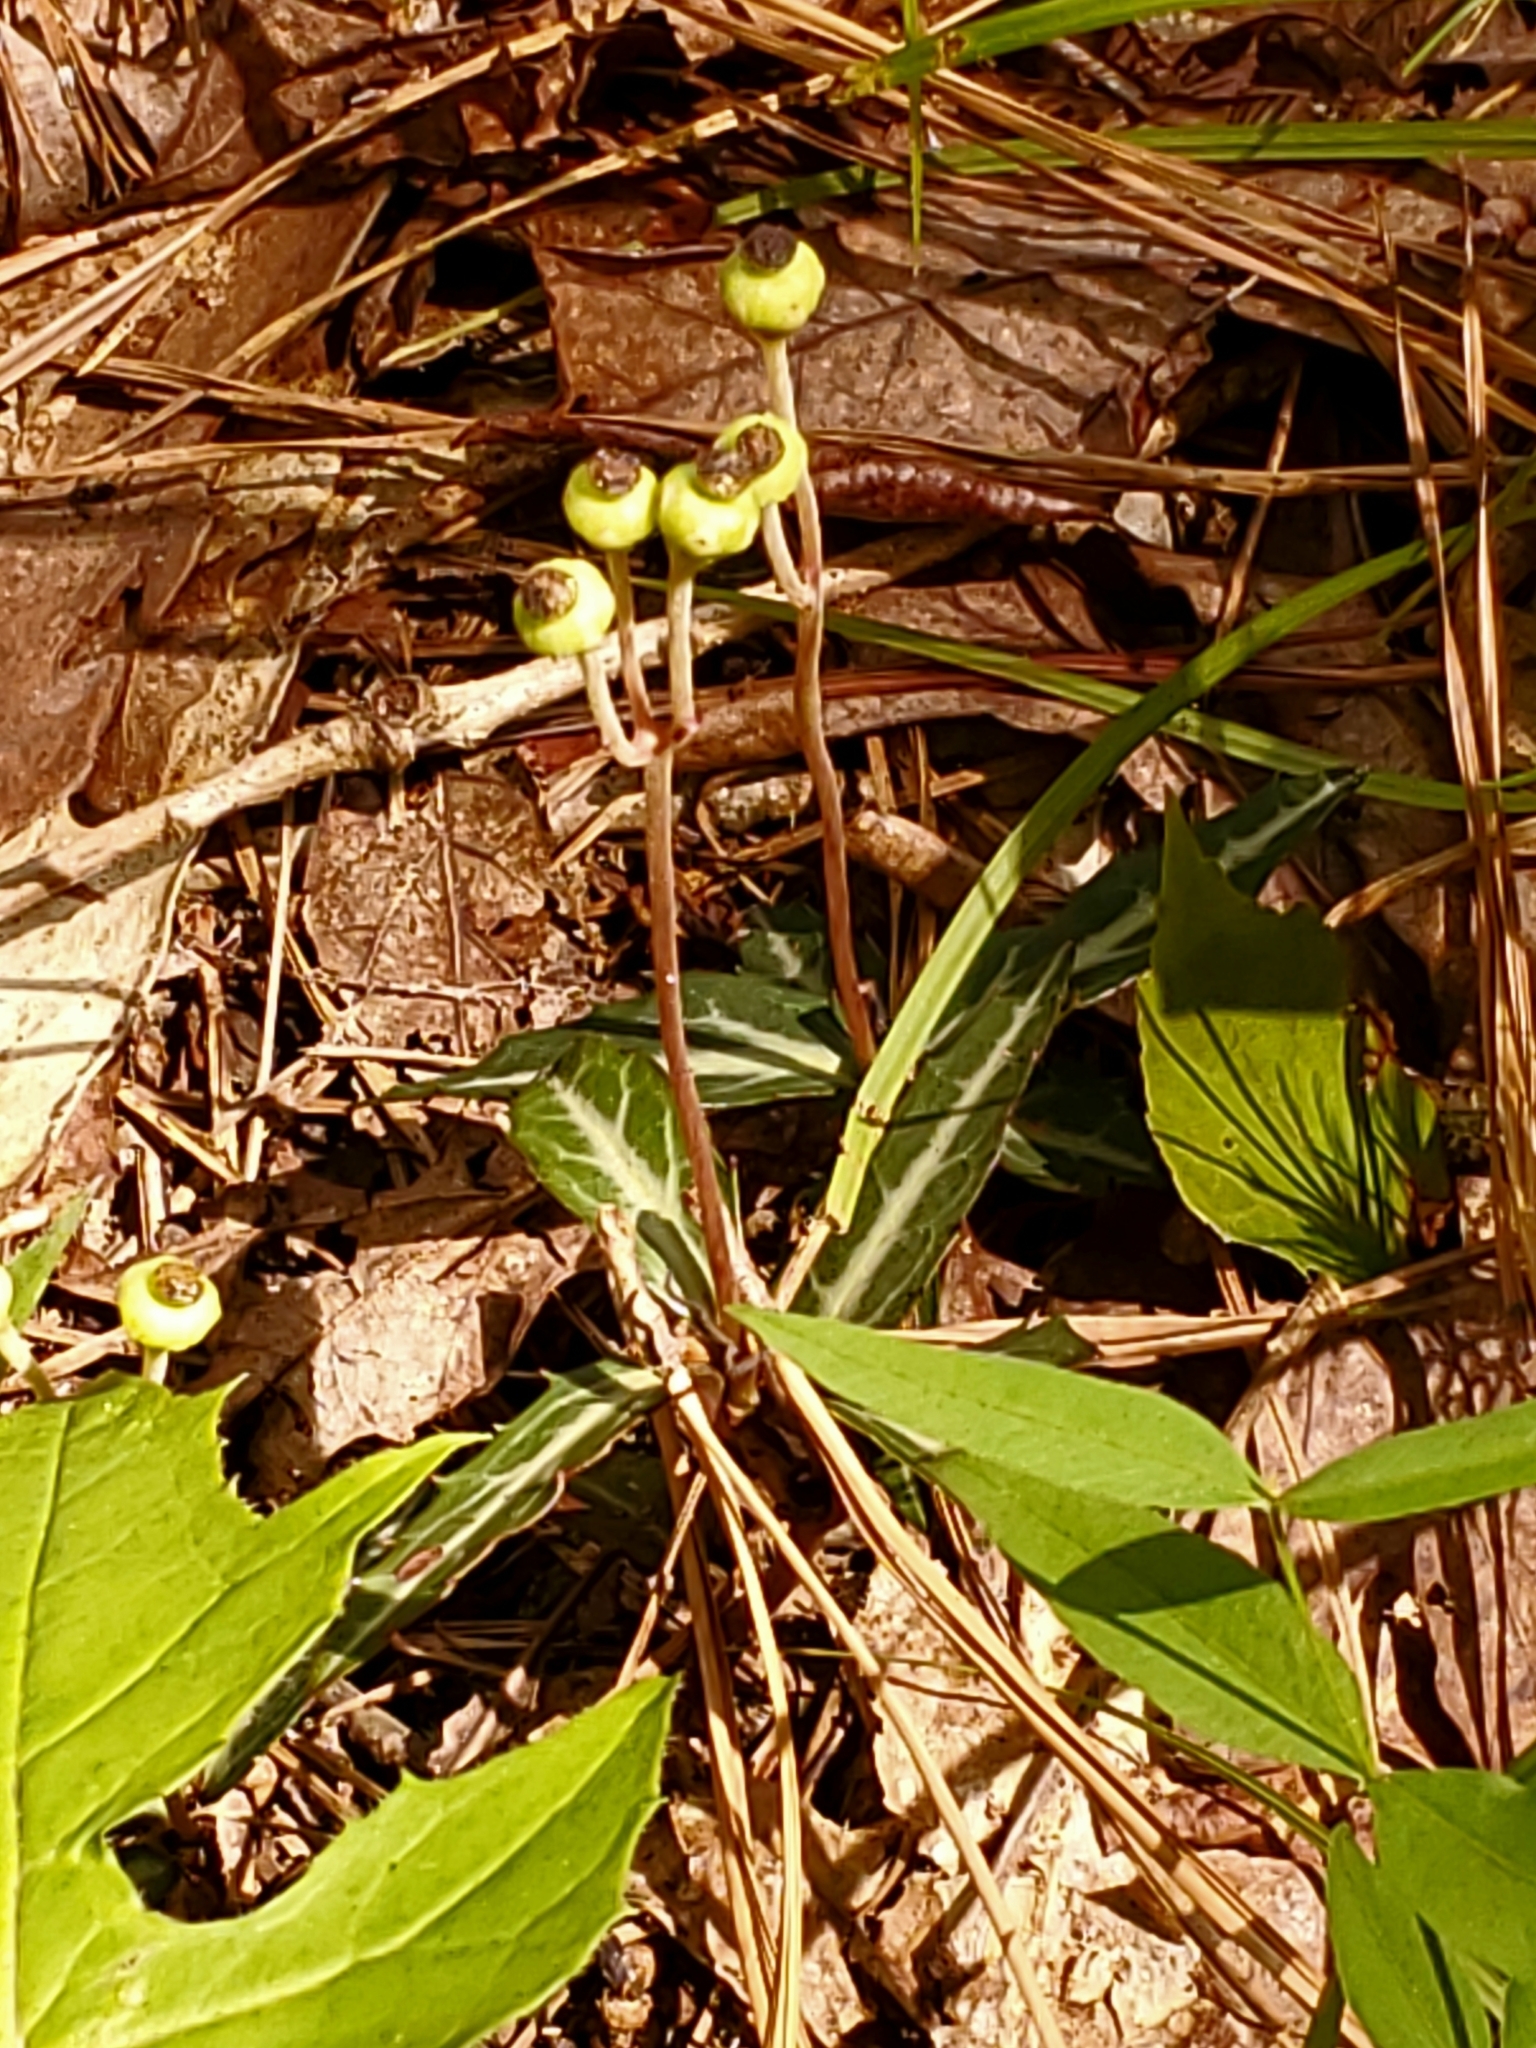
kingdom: Plantae
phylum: Tracheophyta
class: Magnoliopsida
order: Ericales
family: Ericaceae
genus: Chimaphila
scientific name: Chimaphila maculata
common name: Spotted pipsissewa
